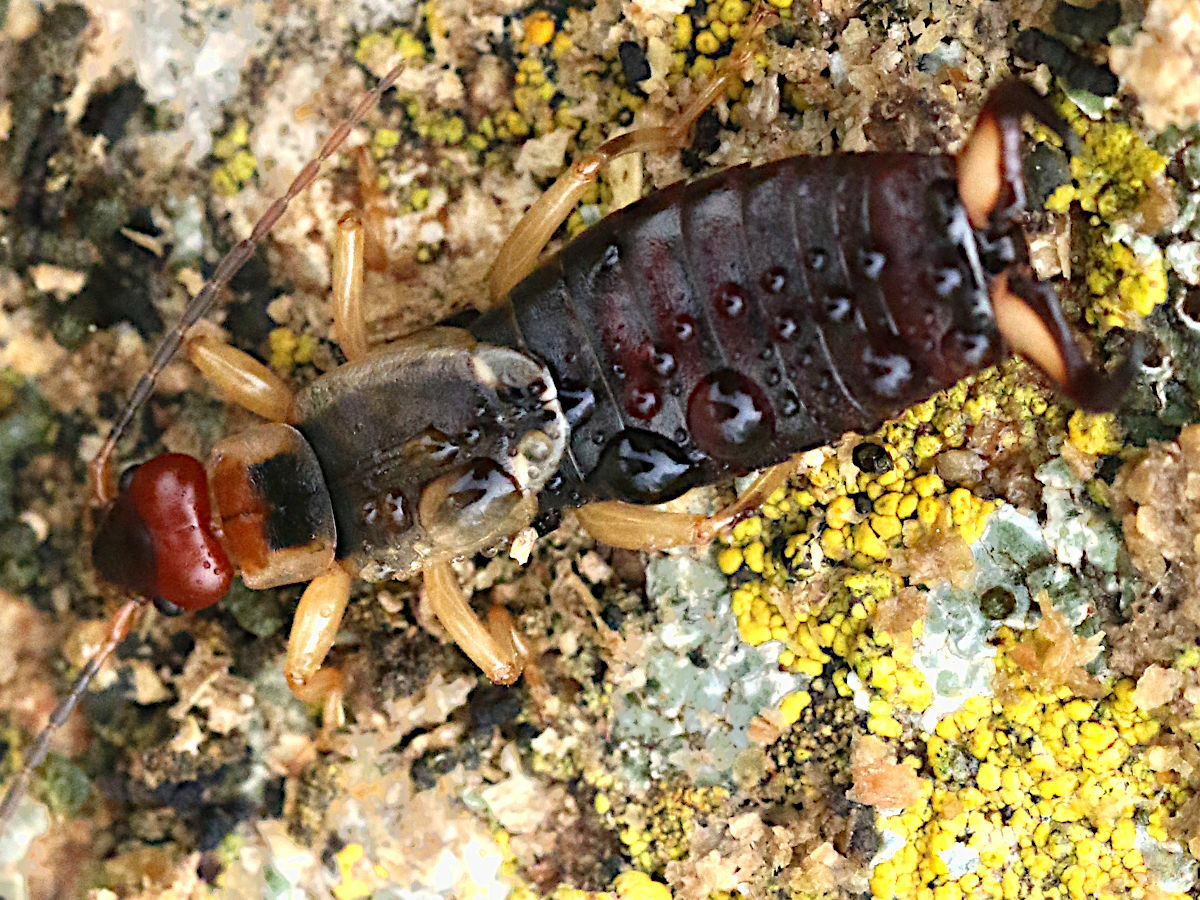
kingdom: Animalia
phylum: Arthropoda
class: Insecta
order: Dermaptera
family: Forficulidae
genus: Forficula
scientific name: Forficula lurida
